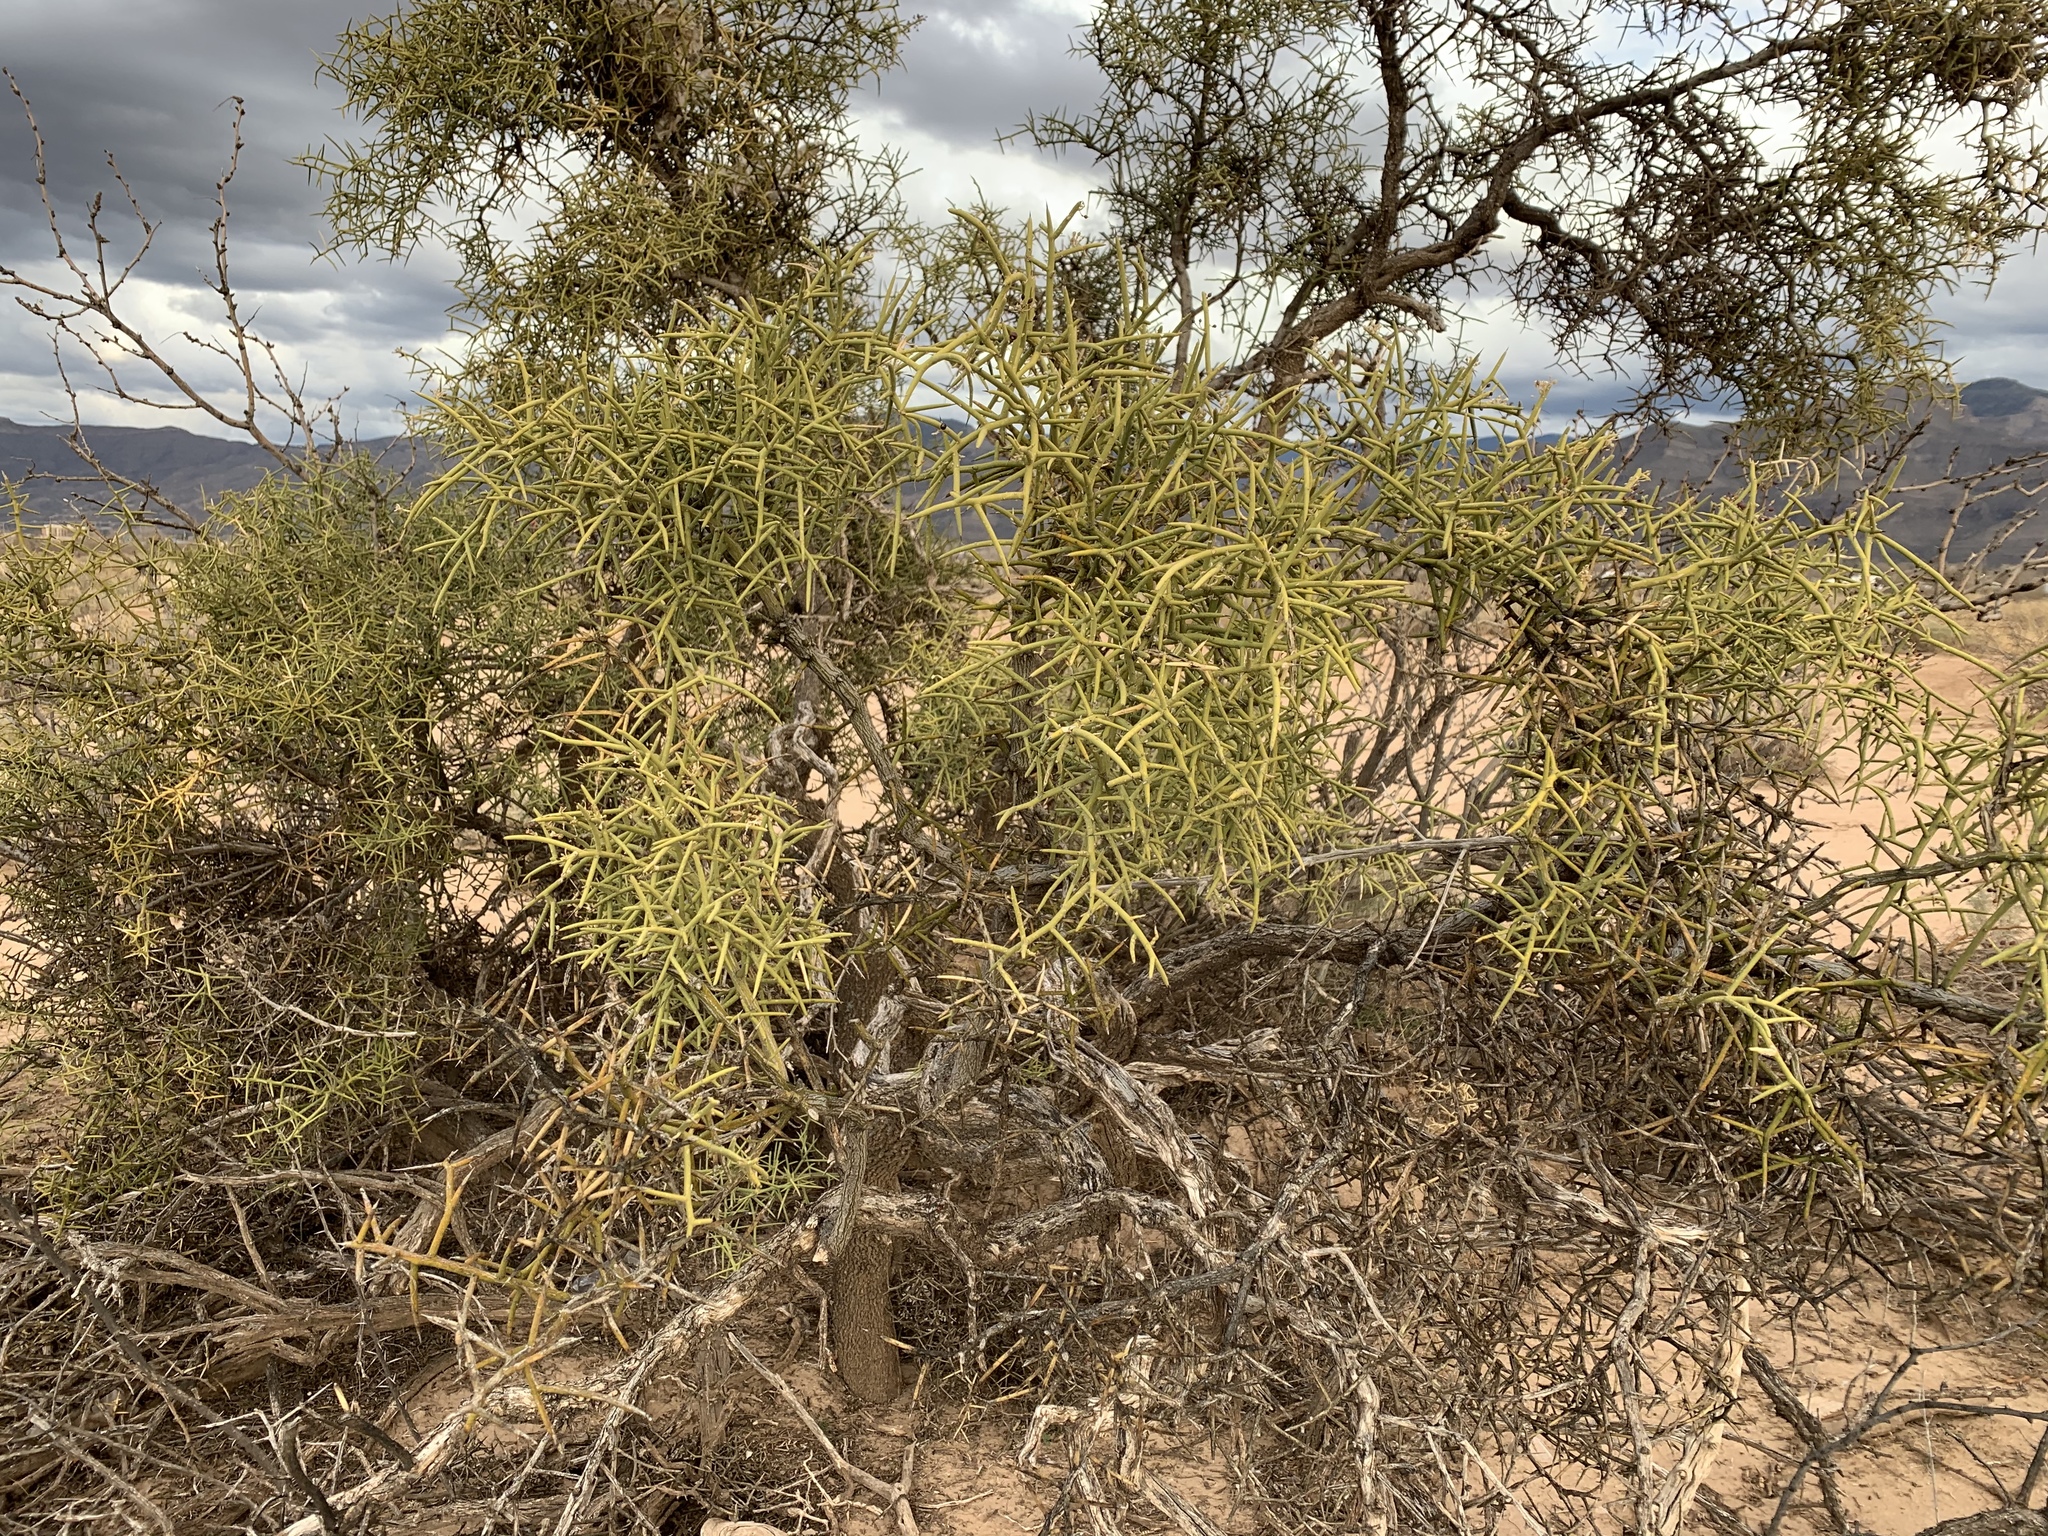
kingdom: Plantae
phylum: Tracheophyta
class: Magnoliopsida
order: Brassicales
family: Koeberliniaceae
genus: Koeberlinia
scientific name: Koeberlinia spinosa
